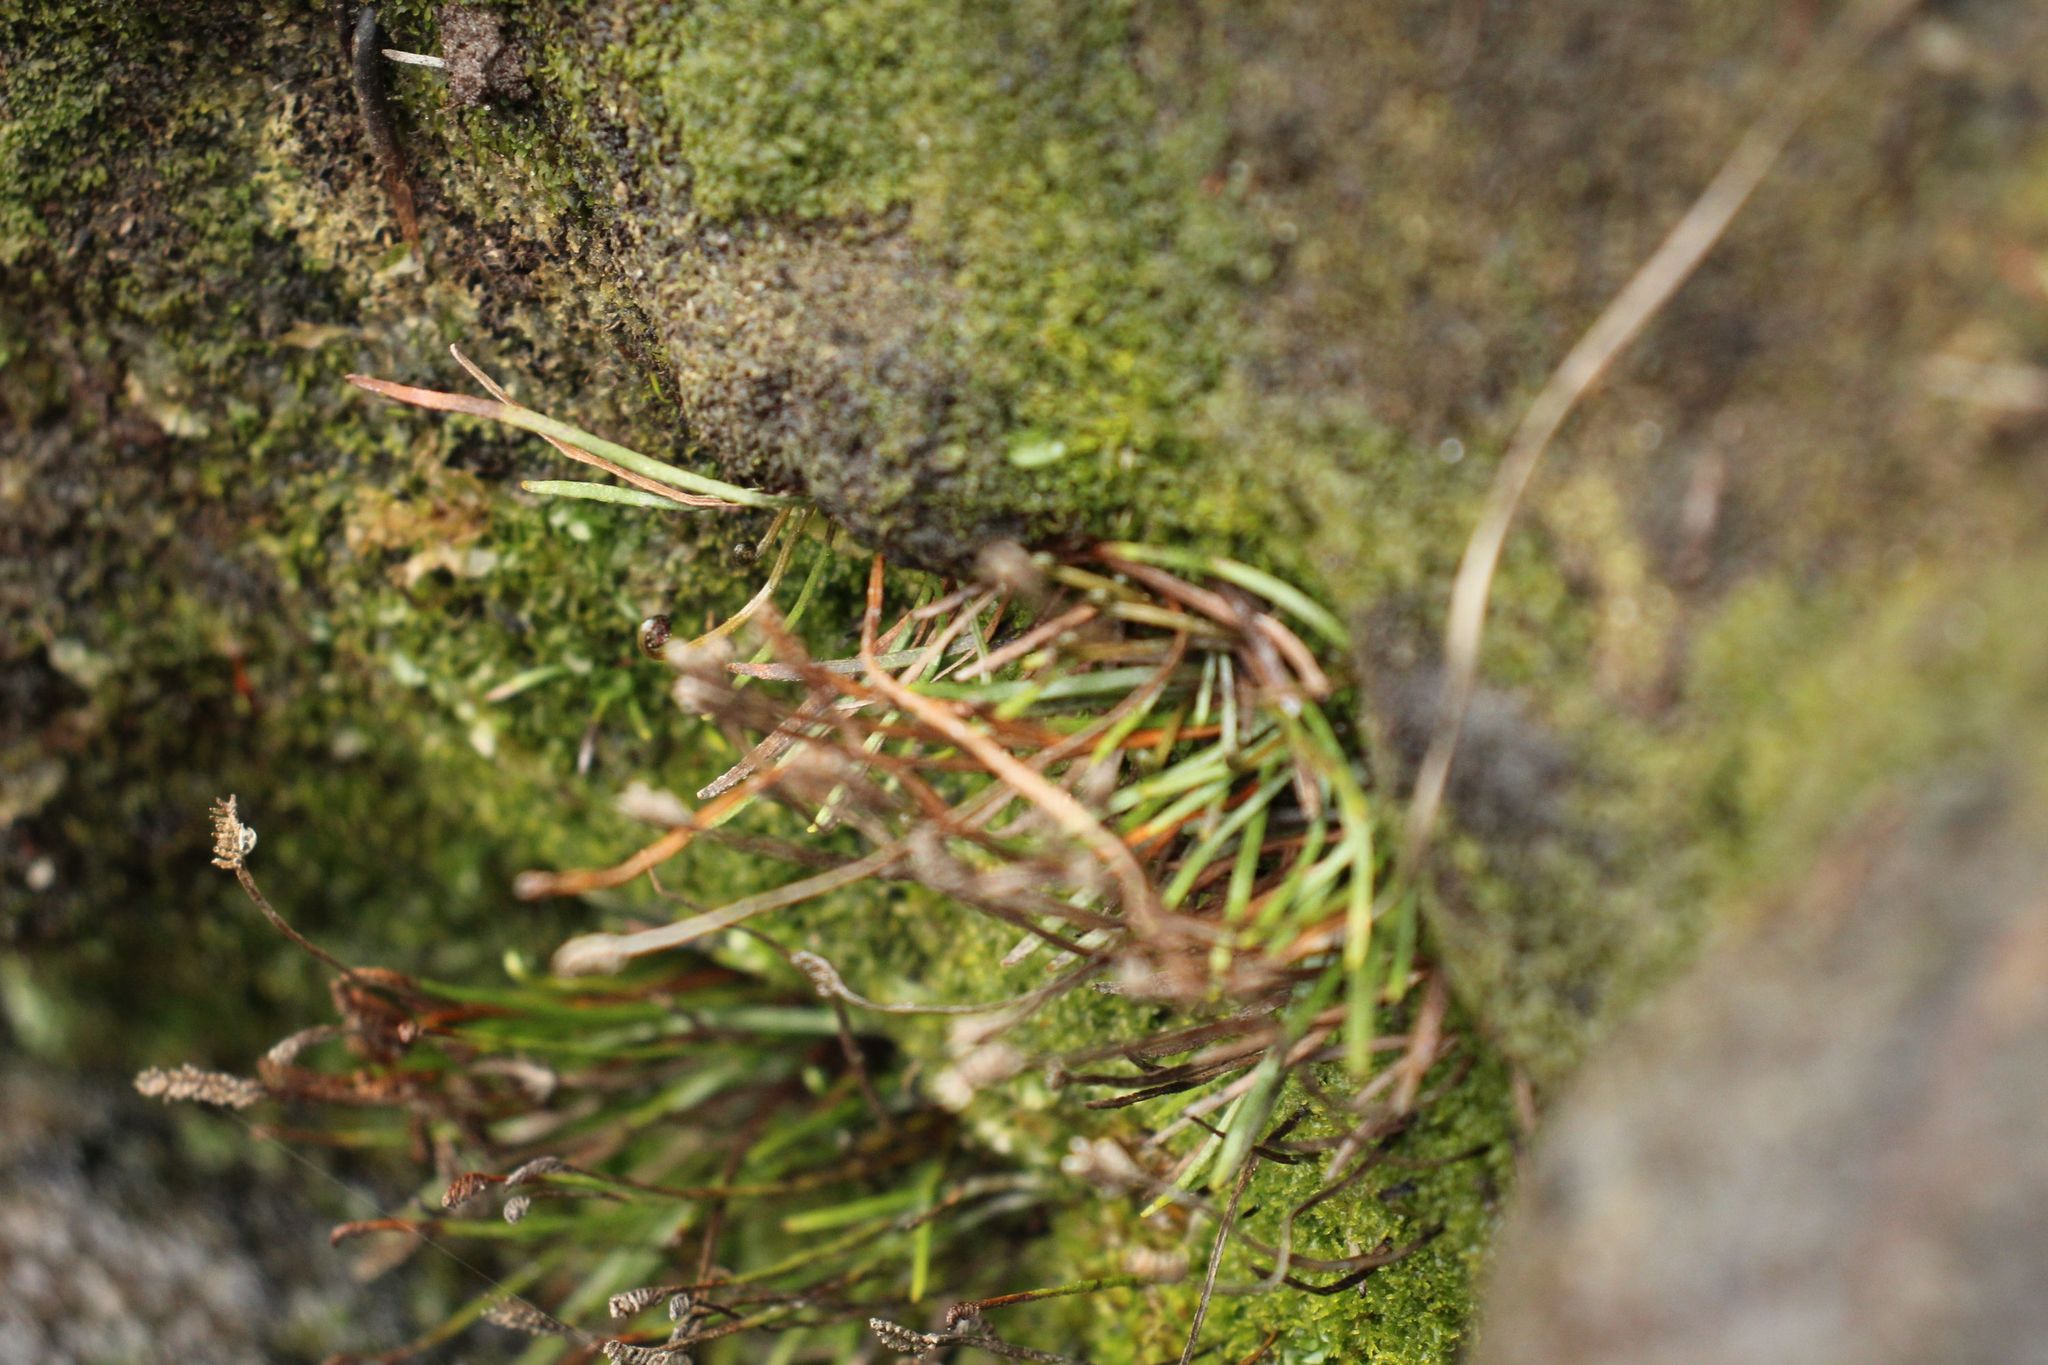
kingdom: Plantae
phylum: Tracheophyta
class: Polypodiopsida
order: Schizaeales
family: Schizaeaceae
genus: Microschizaea
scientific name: Microschizaea rupestris
